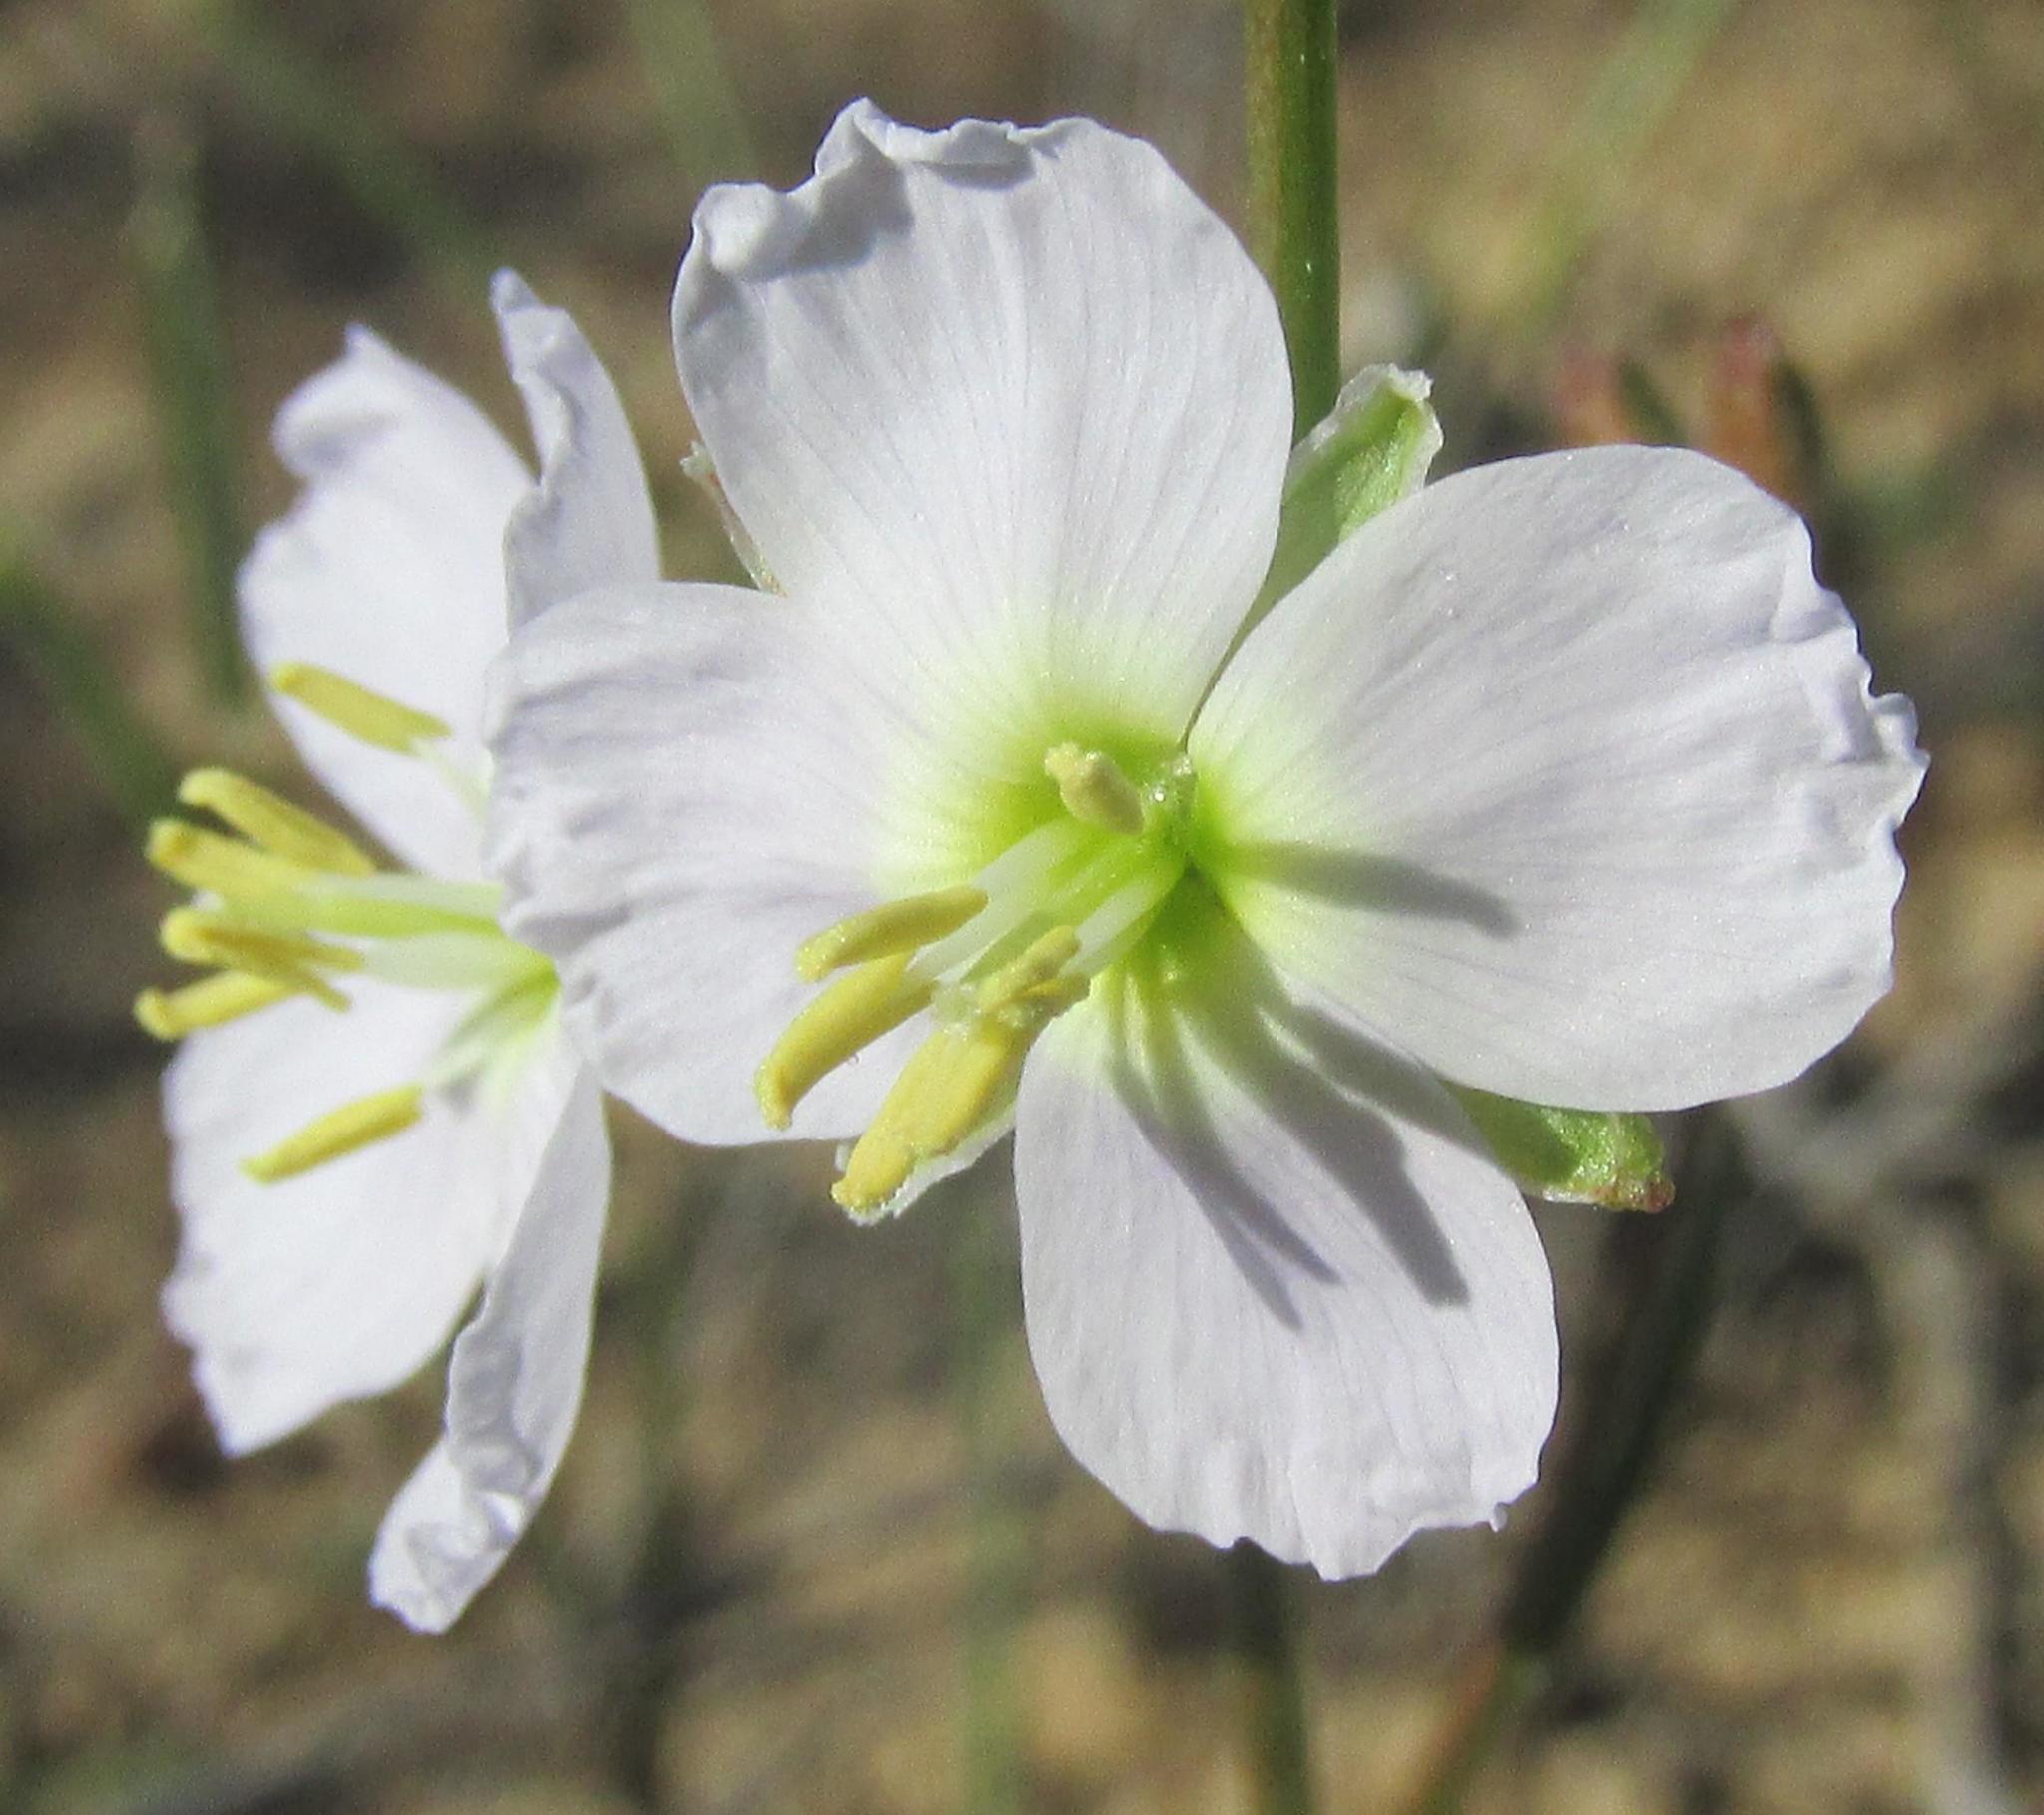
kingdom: Plantae
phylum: Tracheophyta
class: Magnoliopsida
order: Brassicales
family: Brassicaceae
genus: Heliophila
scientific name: Heliophila macowaniana
